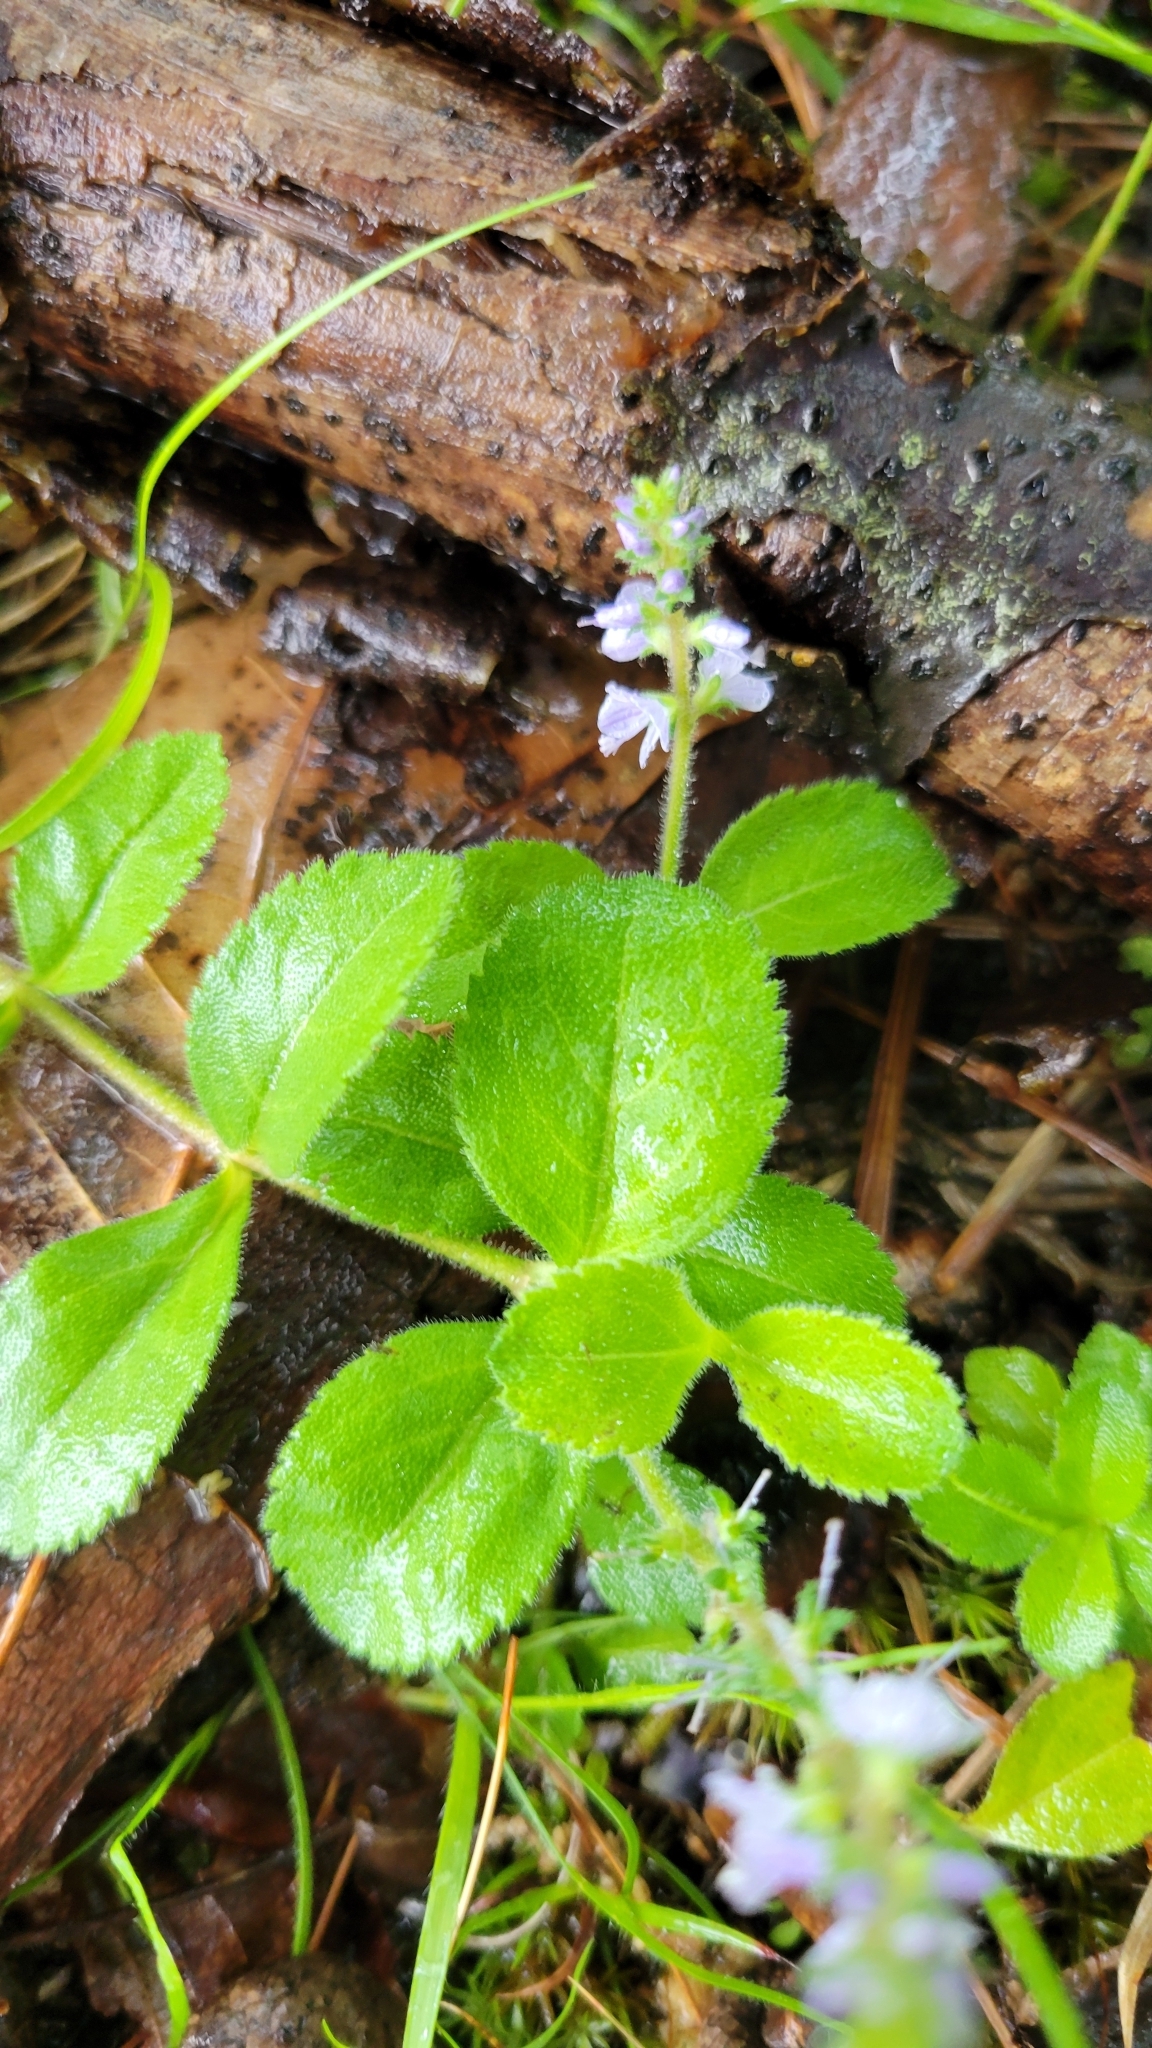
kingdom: Plantae
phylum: Tracheophyta
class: Magnoliopsida
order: Lamiales
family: Plantaginaceae
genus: Veronica
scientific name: Veronica officinalis
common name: Common speedwell
